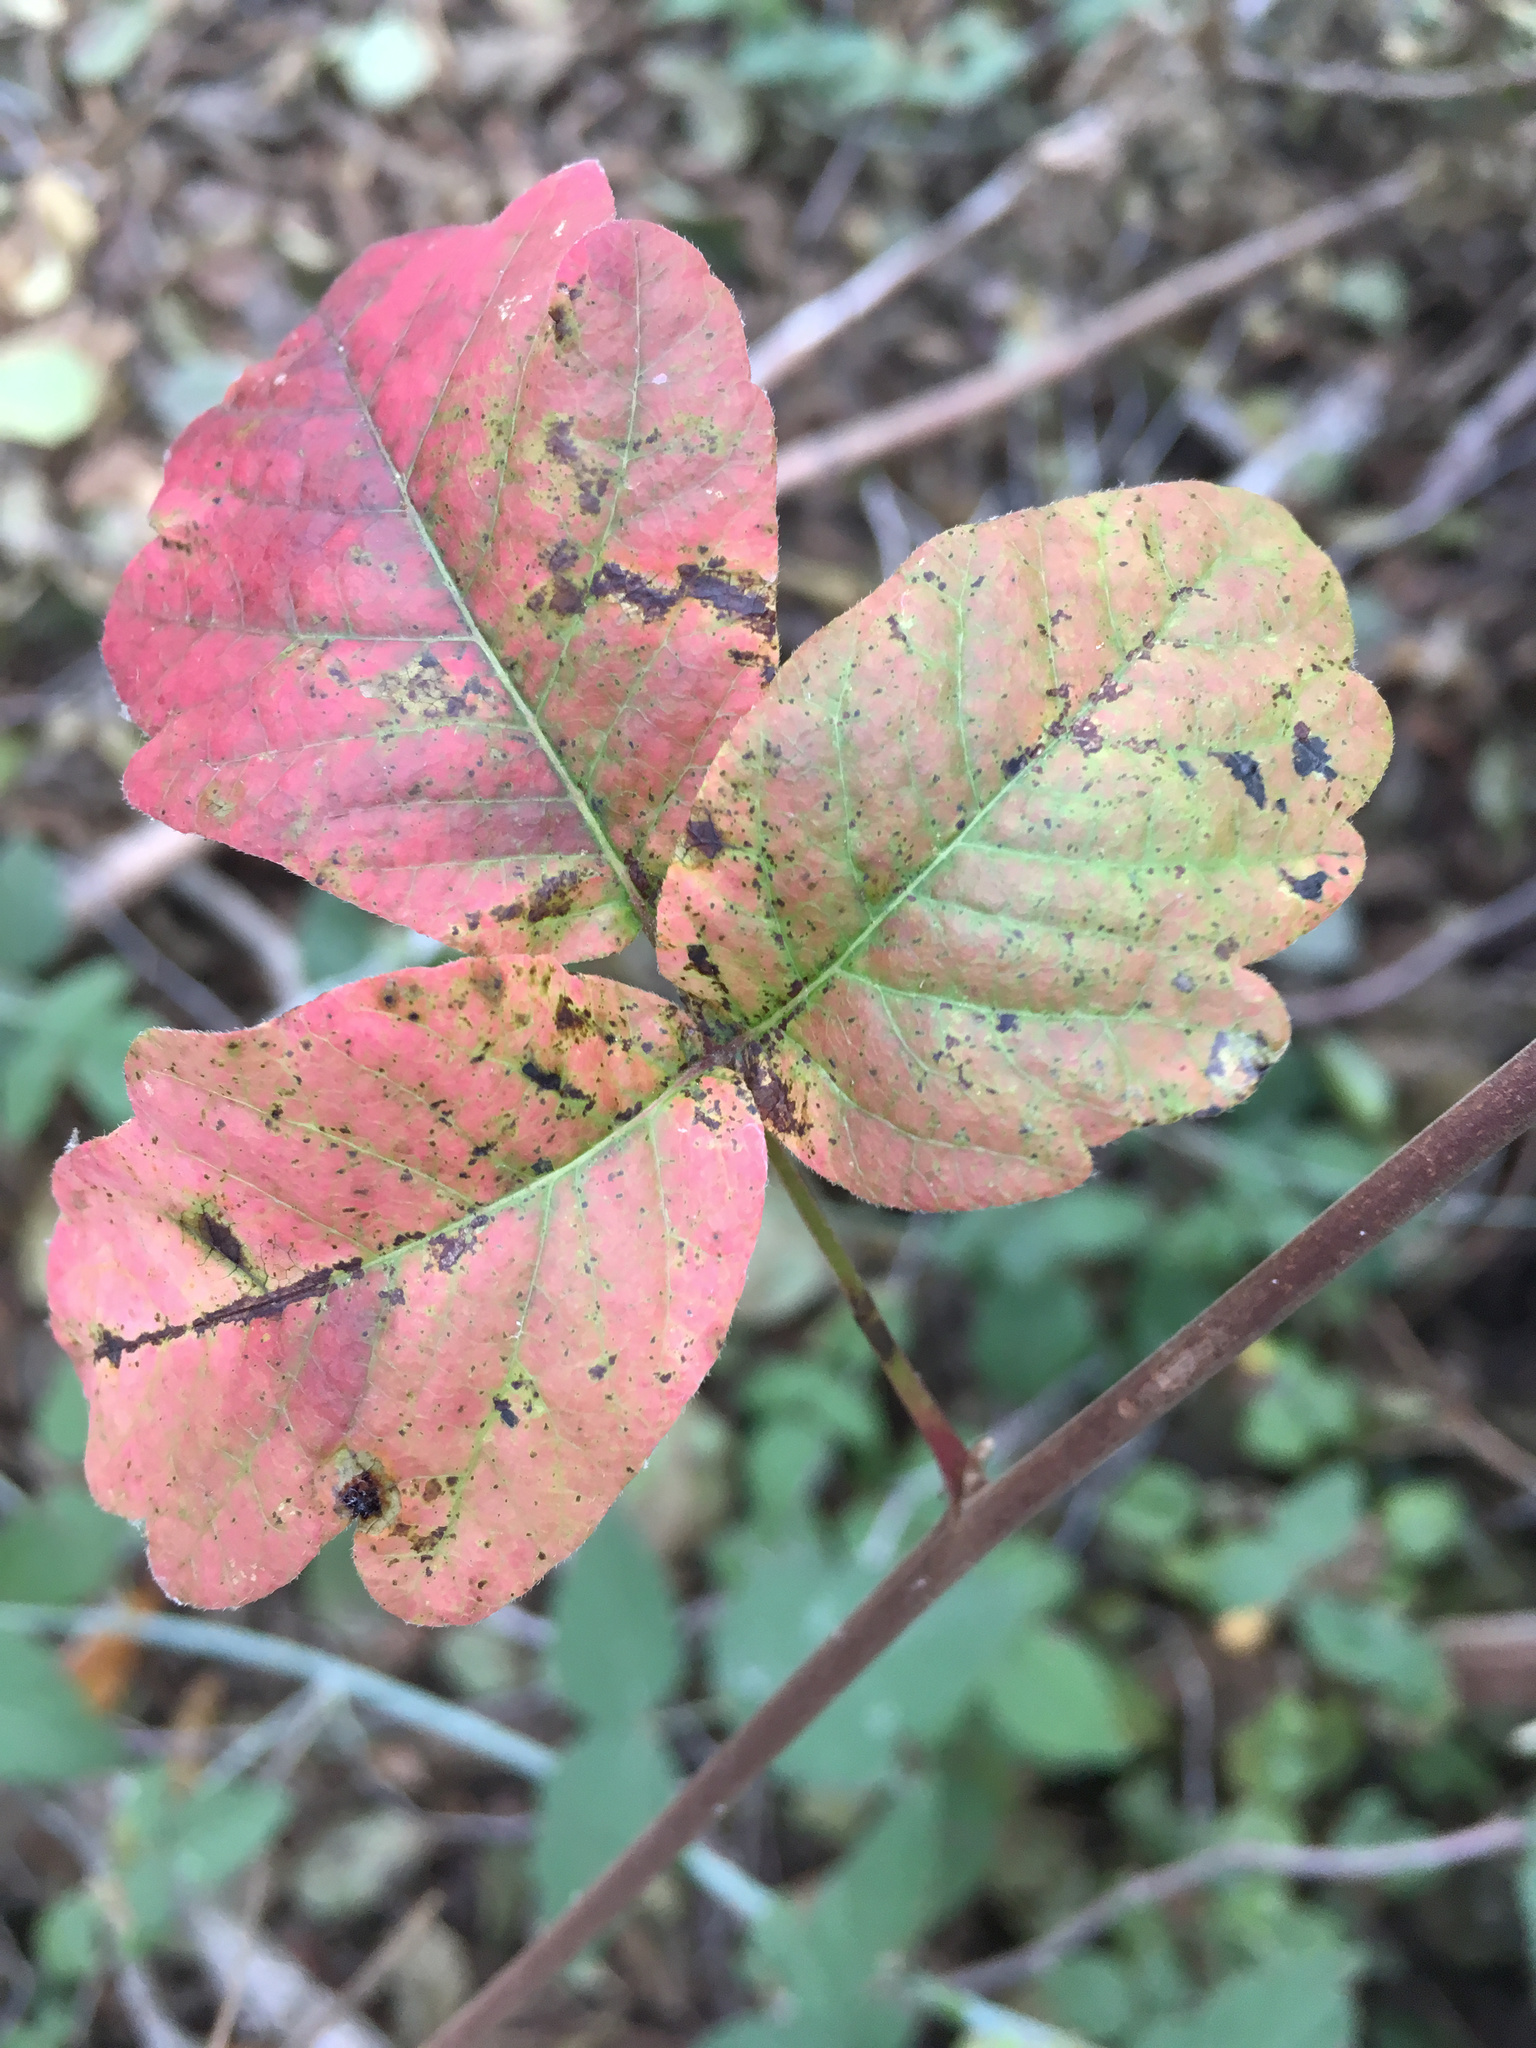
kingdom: Plantae
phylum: Tracheophyta
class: Magnoliopsida
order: Sapindales
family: Anacardiaceae
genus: Toxicodendron
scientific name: Toxicodendron diversilobum
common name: Pacific poison-oak
